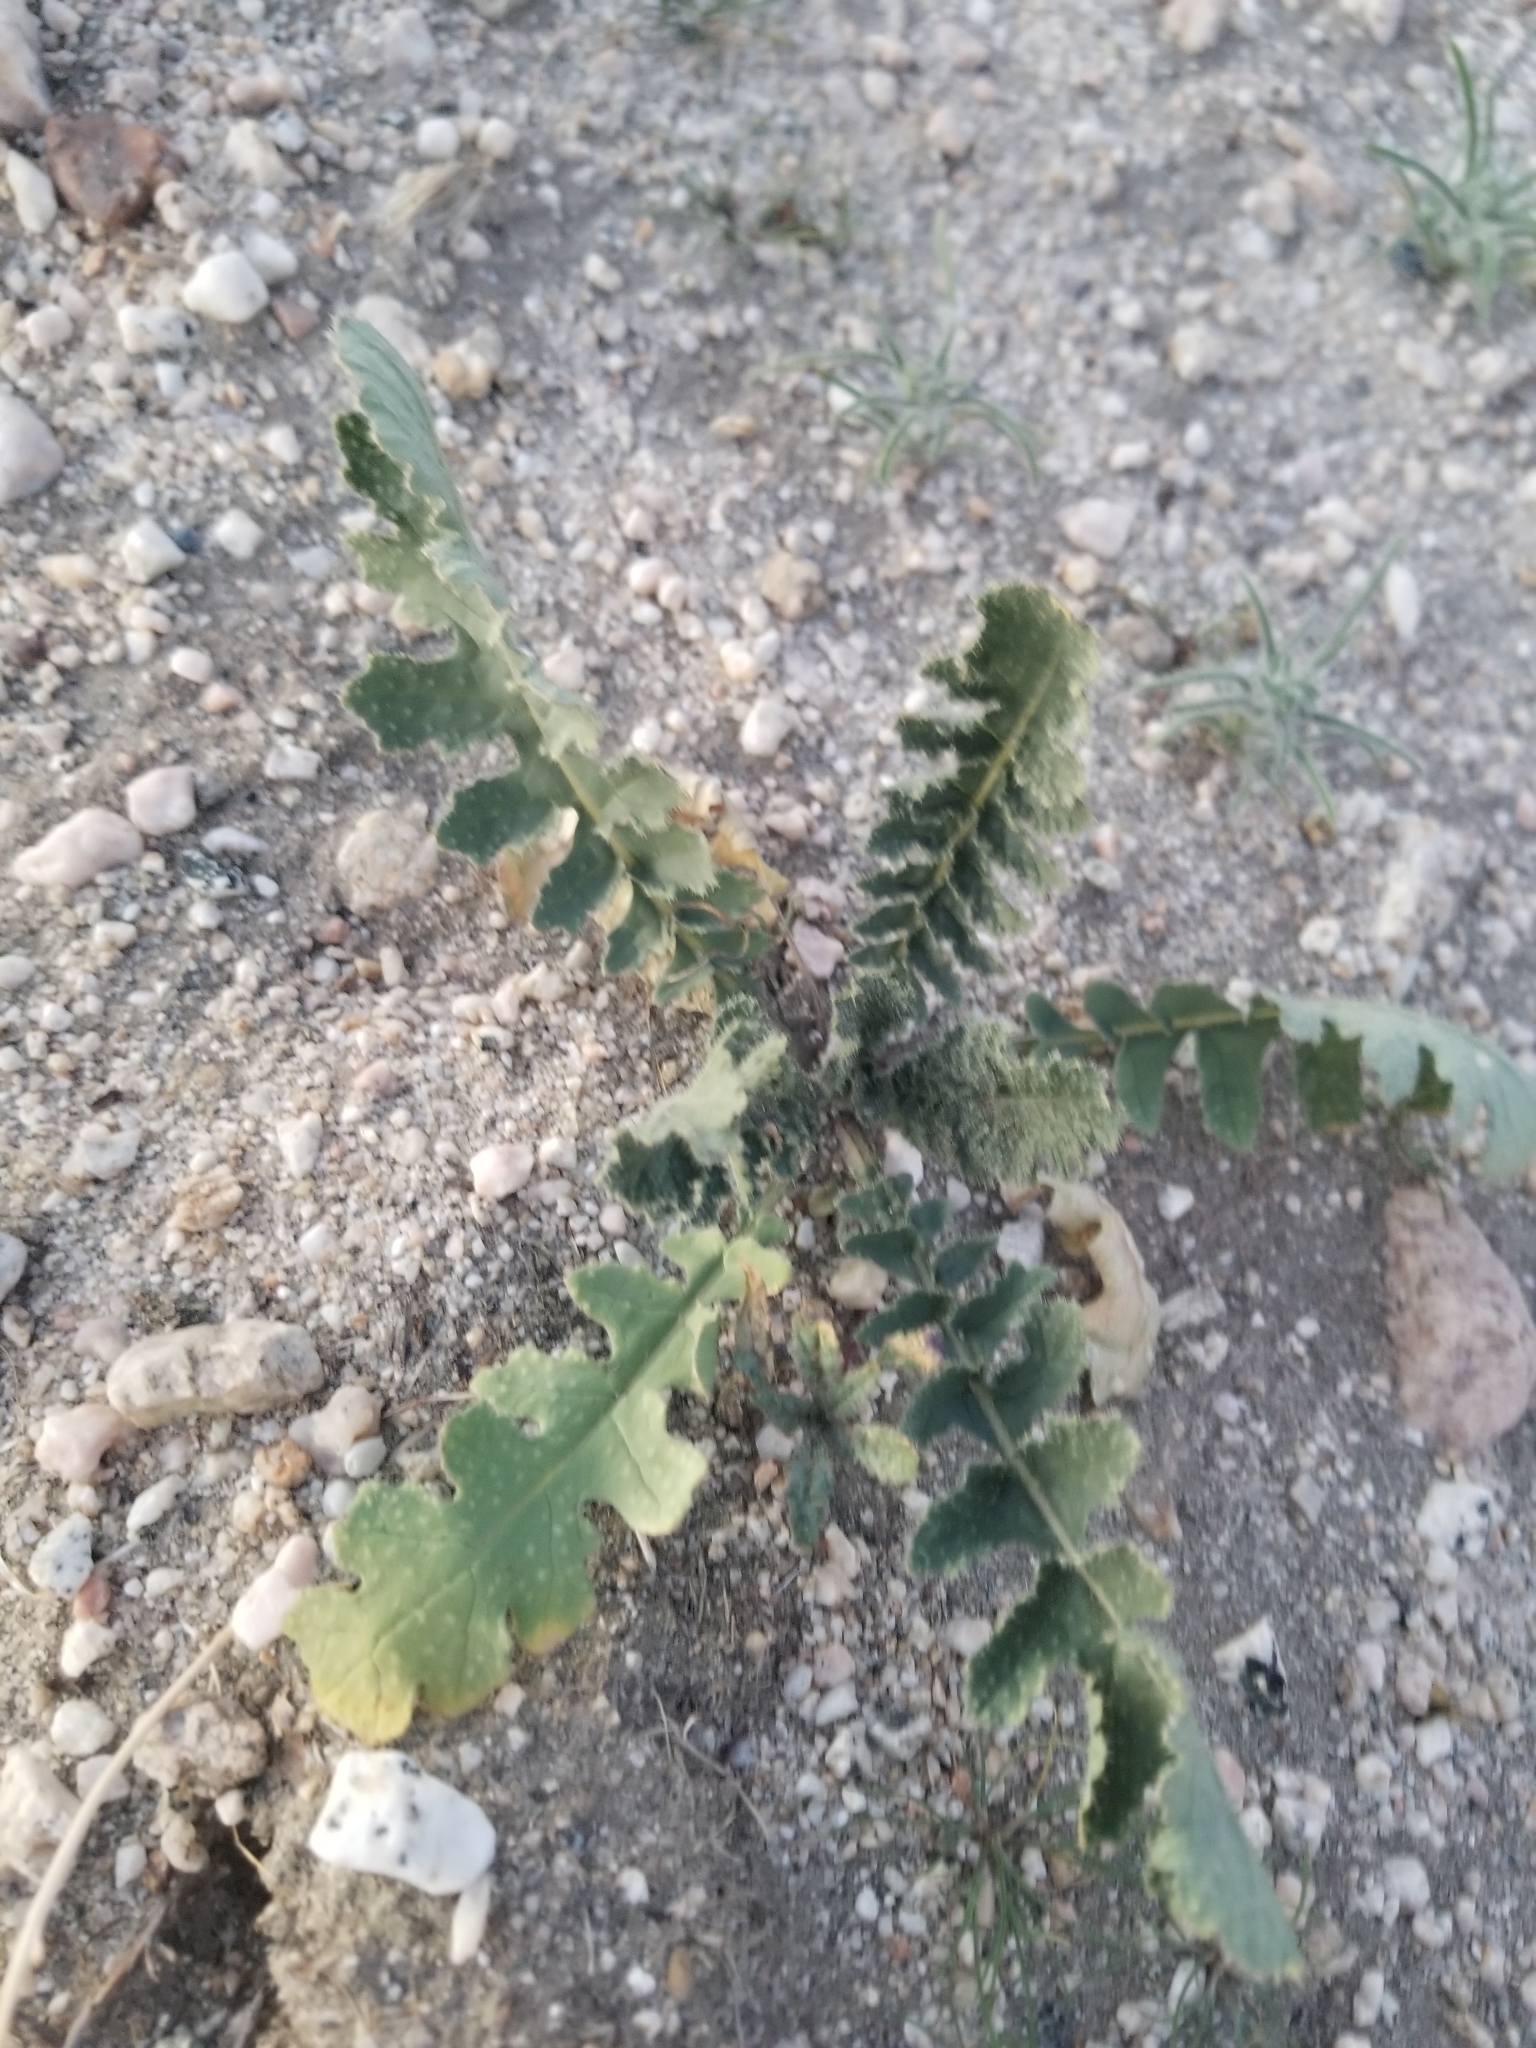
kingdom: Plantae
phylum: Tracheophyta
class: Magnoliopsida
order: Brassicales
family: Brassicaceae
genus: Brassica
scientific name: Brassica tournefortii
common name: Pale cabbage
